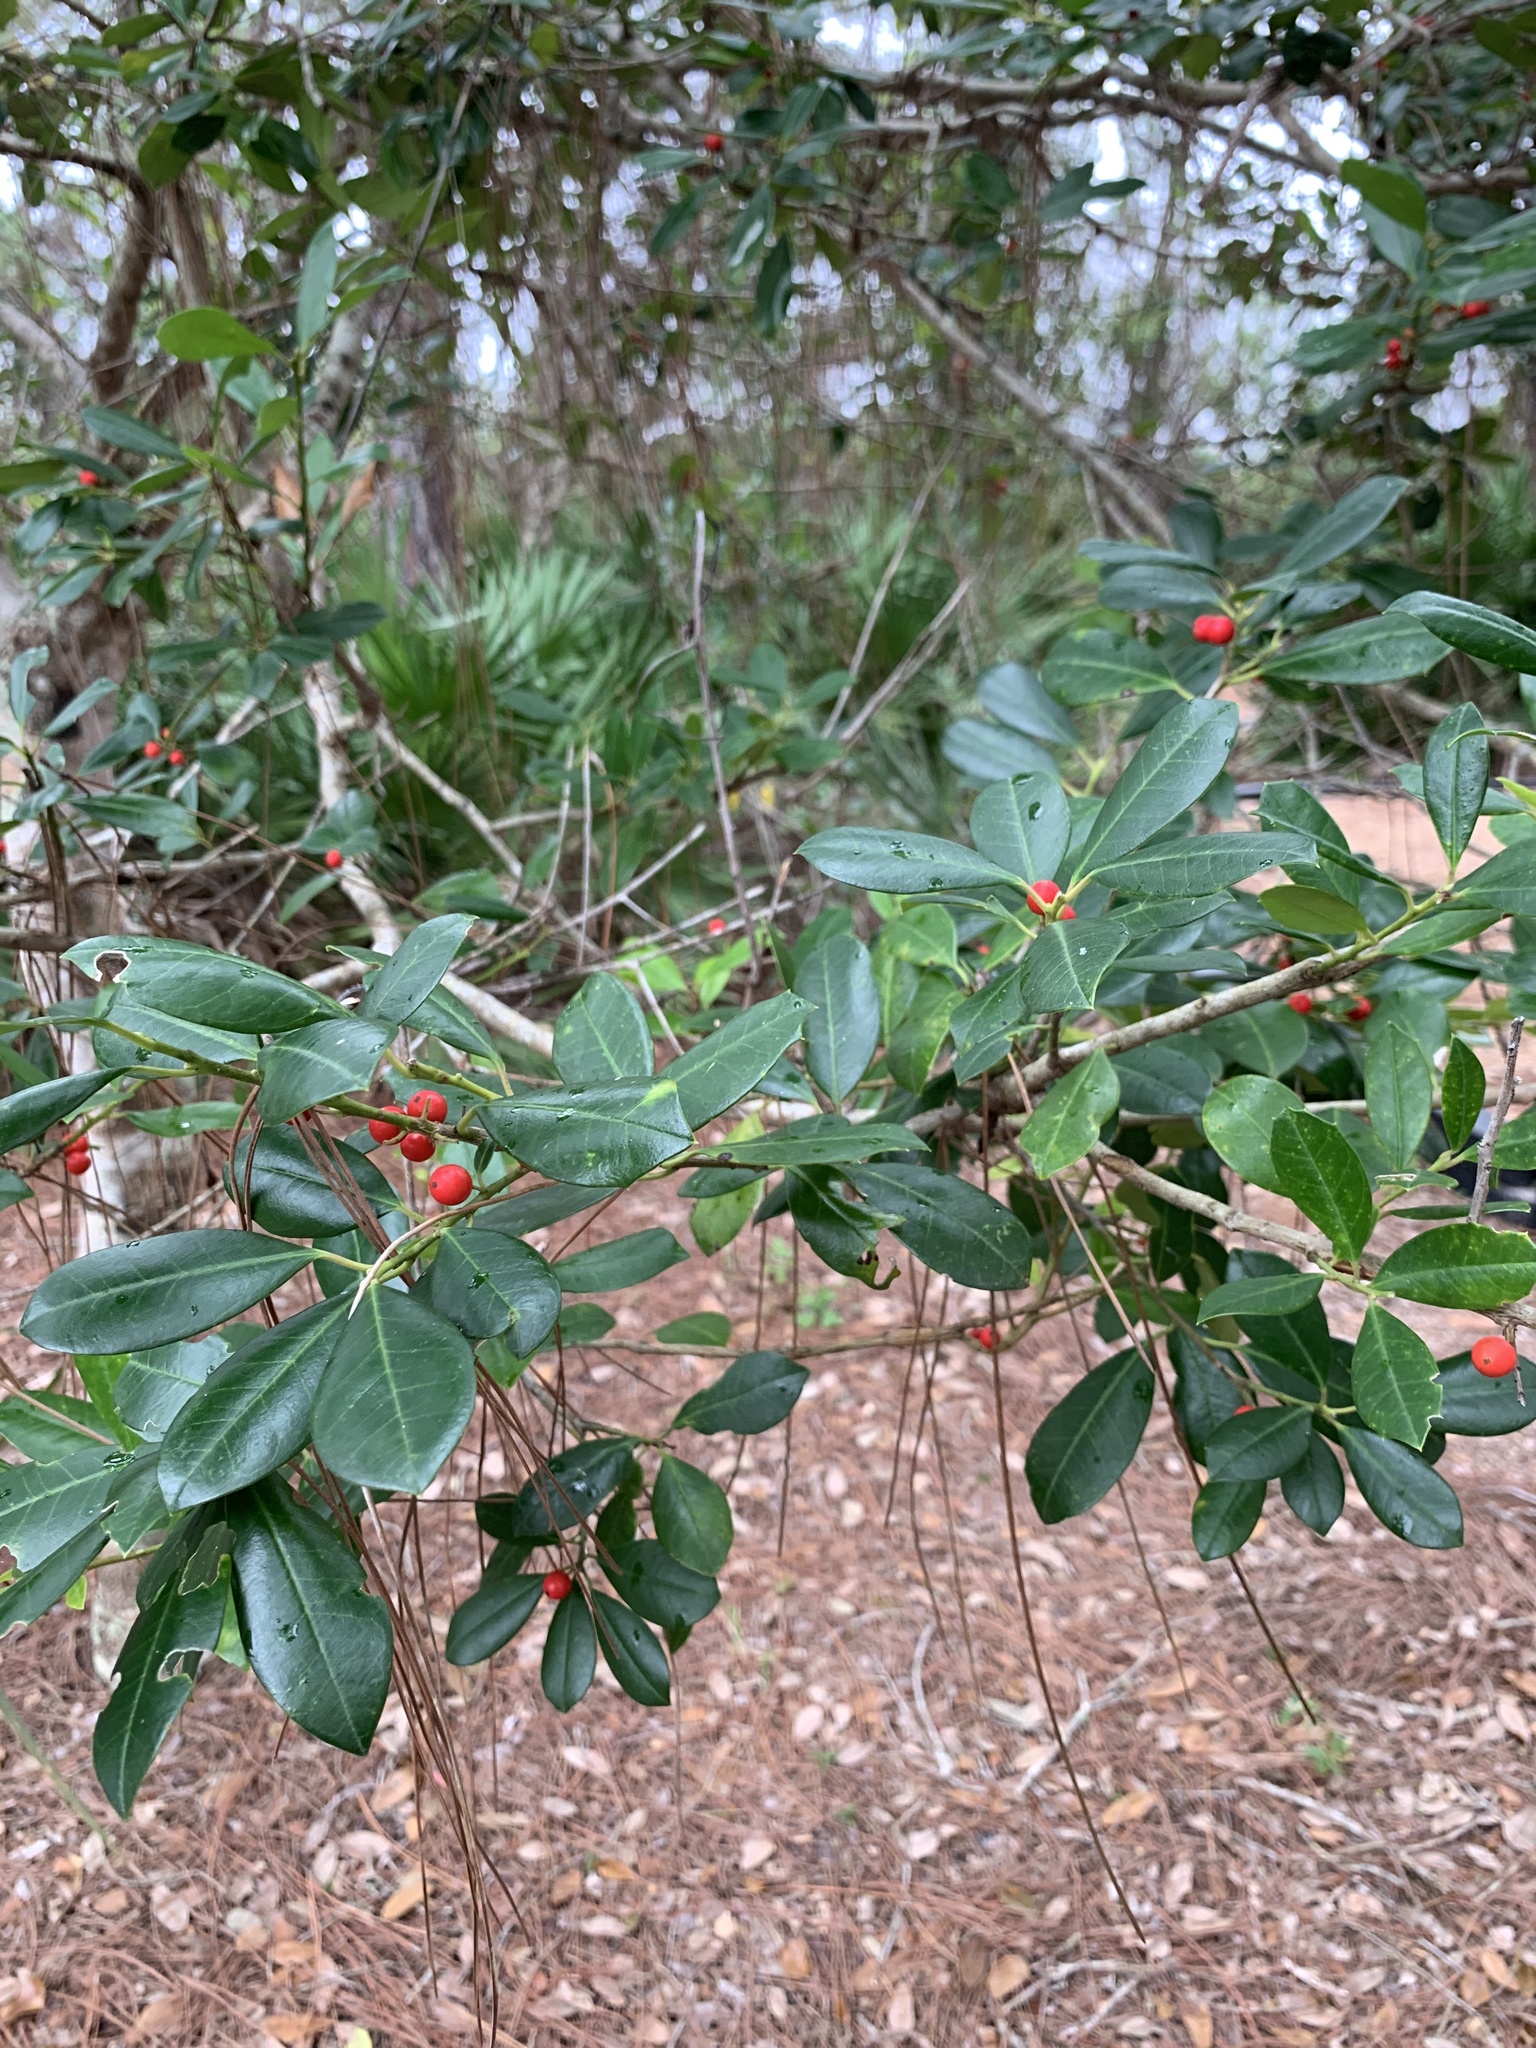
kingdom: Plantae
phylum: Tracheophyta
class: Magnoliopsida
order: Aquifoliales
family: Aquifoliaceae
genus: Ilex
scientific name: Ilex cassine
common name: Dahoon
